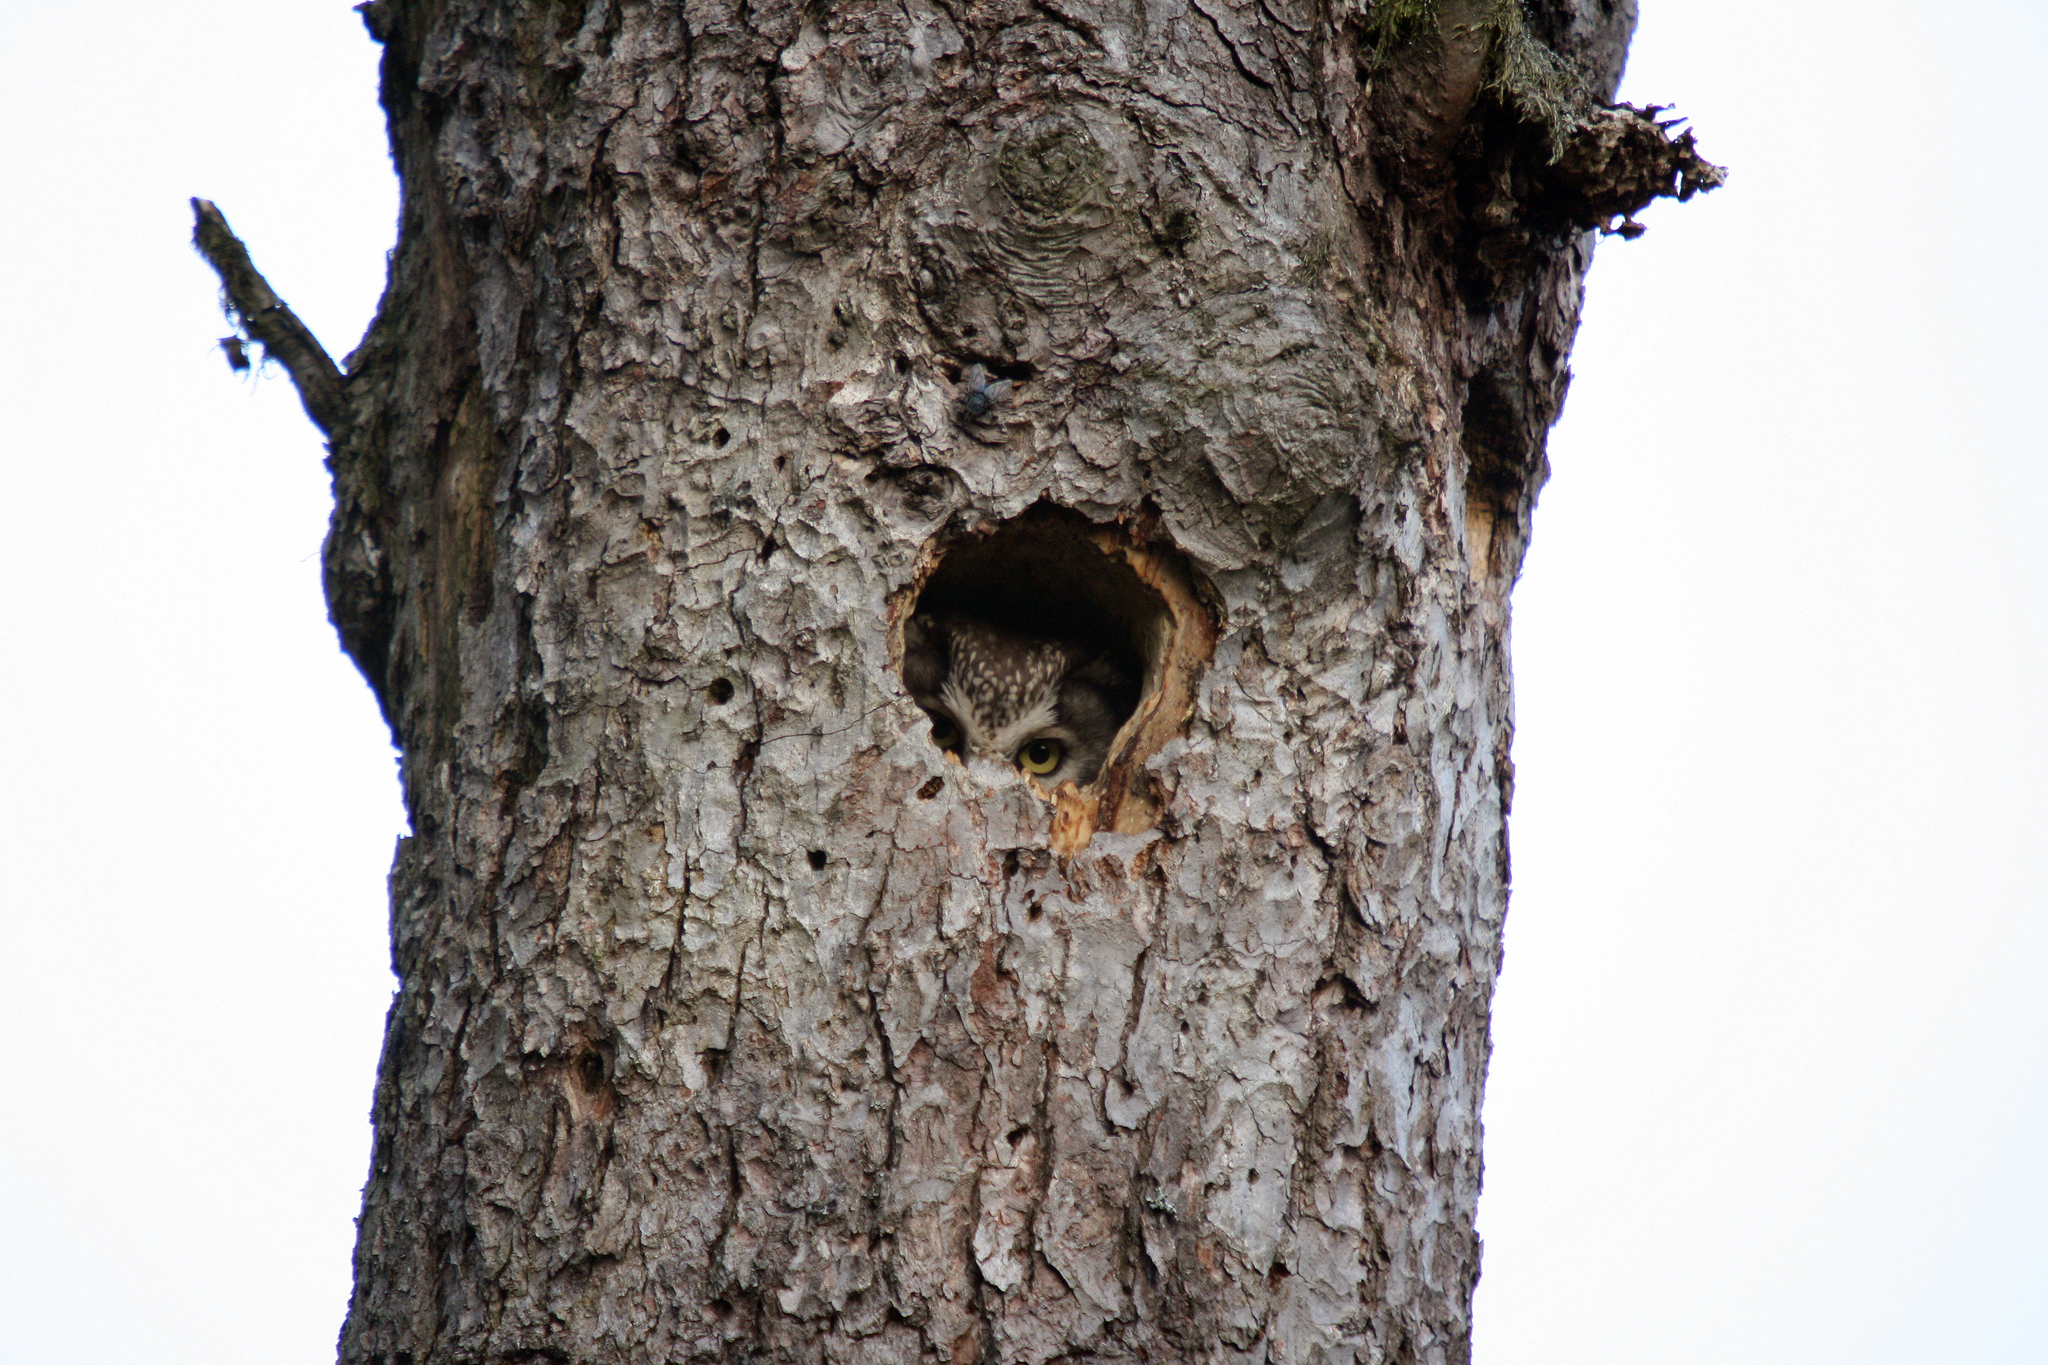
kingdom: Animalia
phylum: Chordata
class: Aves
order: Strigiformes
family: Strigidae
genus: Aegolius
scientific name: Aegolius funereus
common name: Boreal owl
